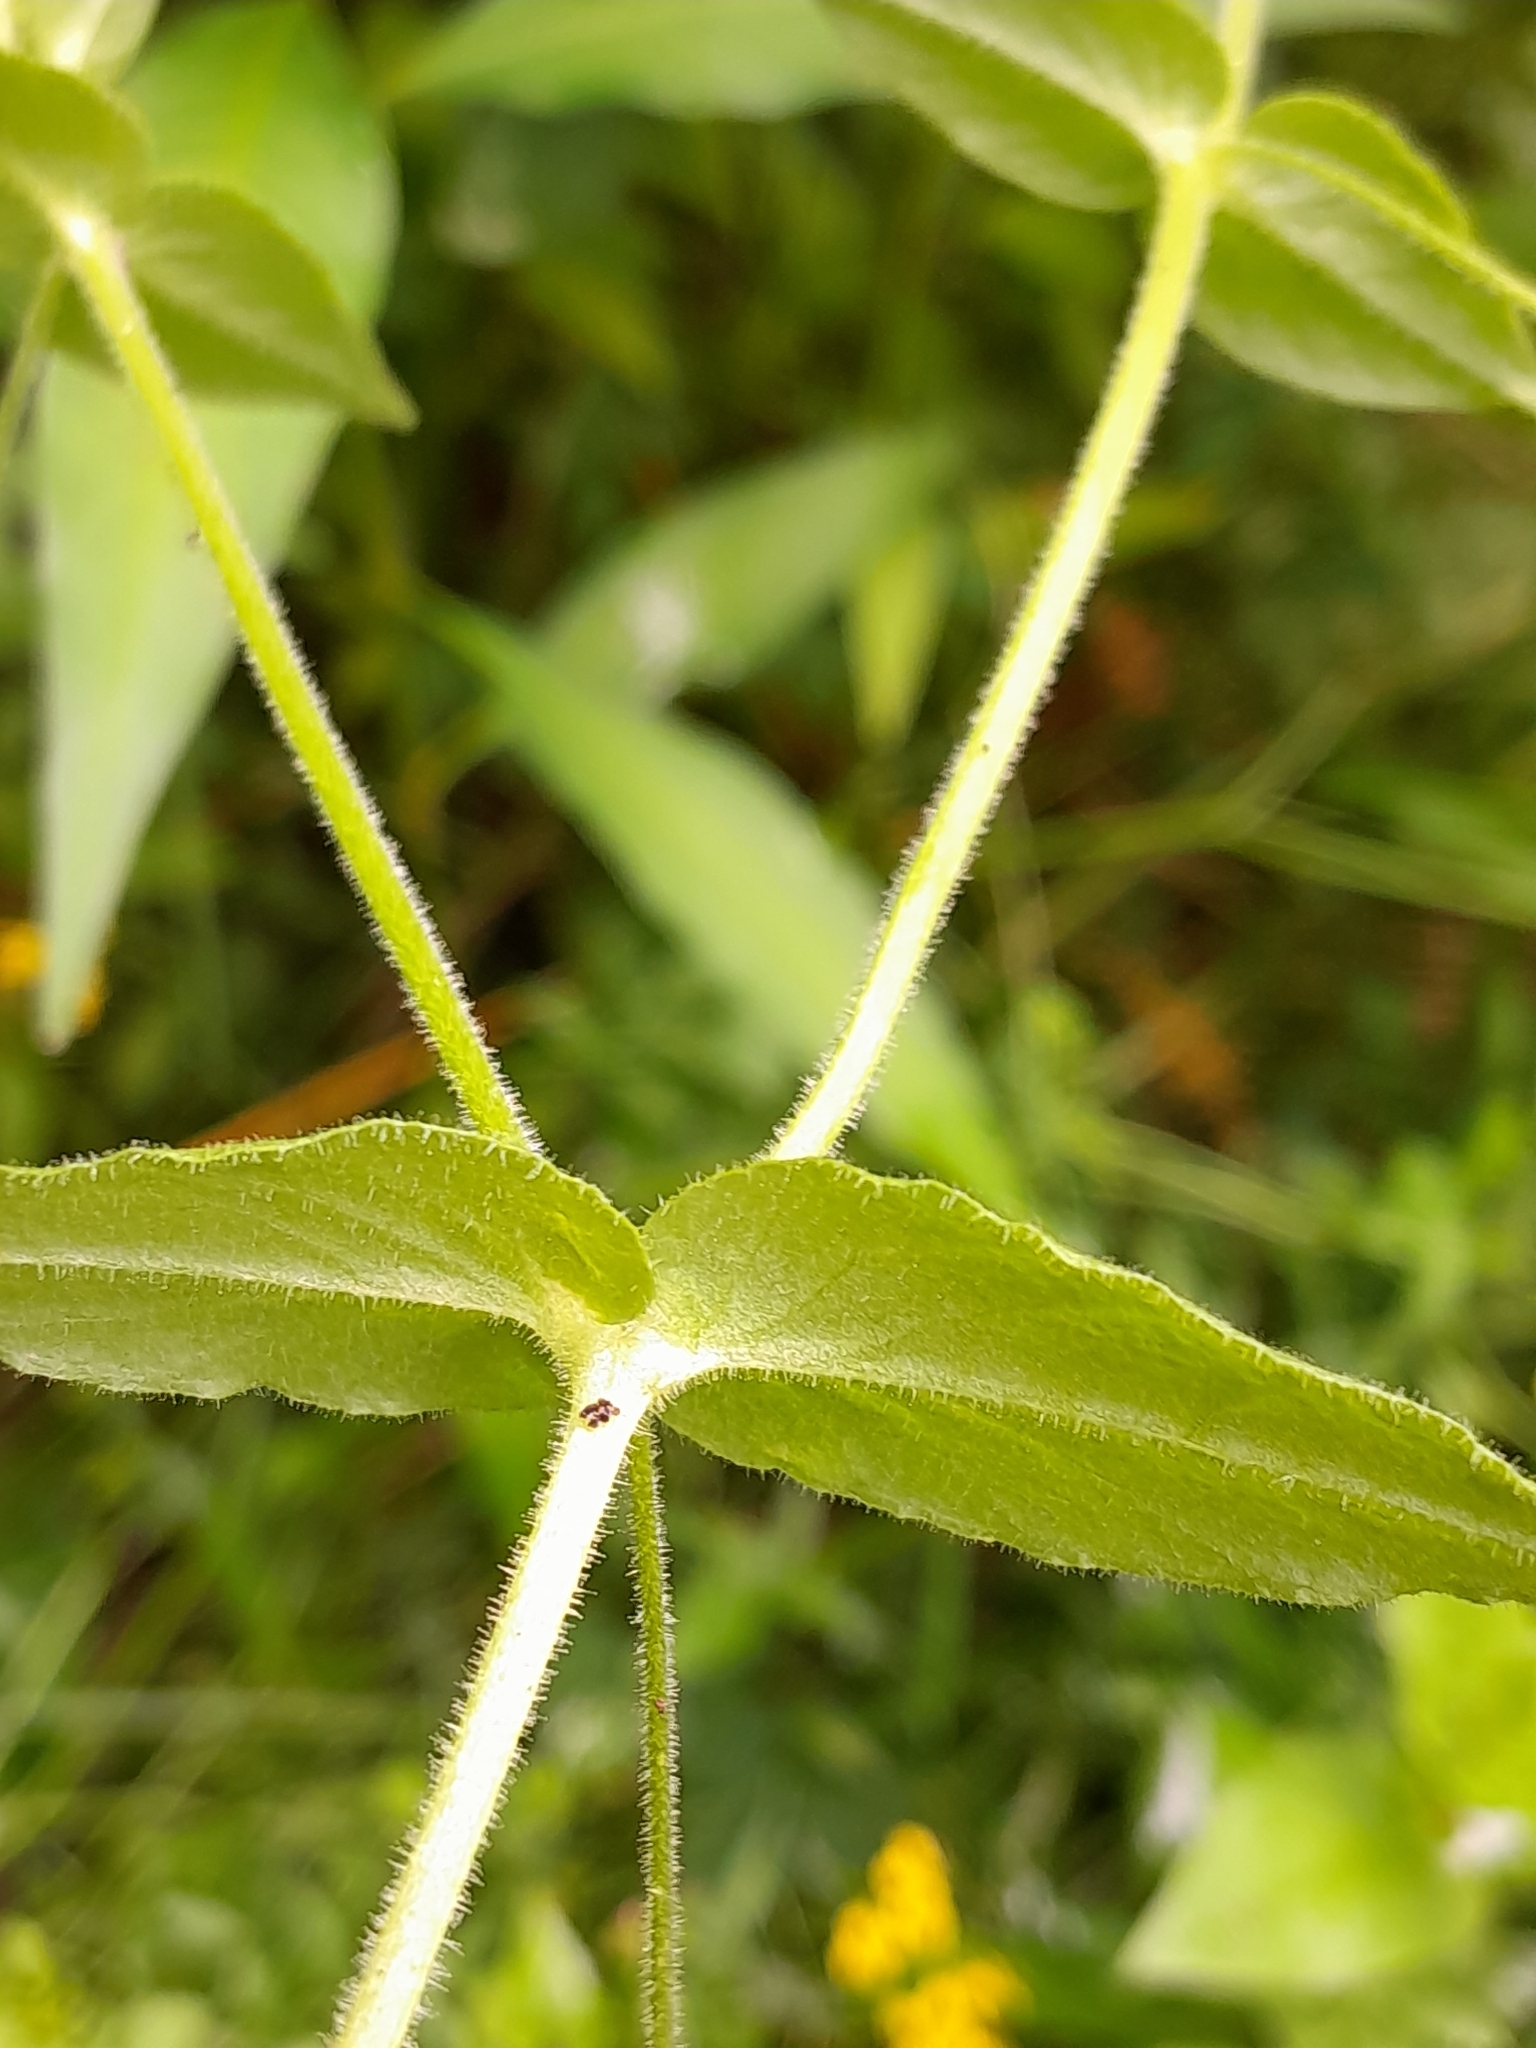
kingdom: Plantae
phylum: Tracheophyta
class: Magnoliopsida
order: Caryophyllales
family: Caryophyllaceae
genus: Stellaria
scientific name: Stellaria aquatica
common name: Water chickweed
